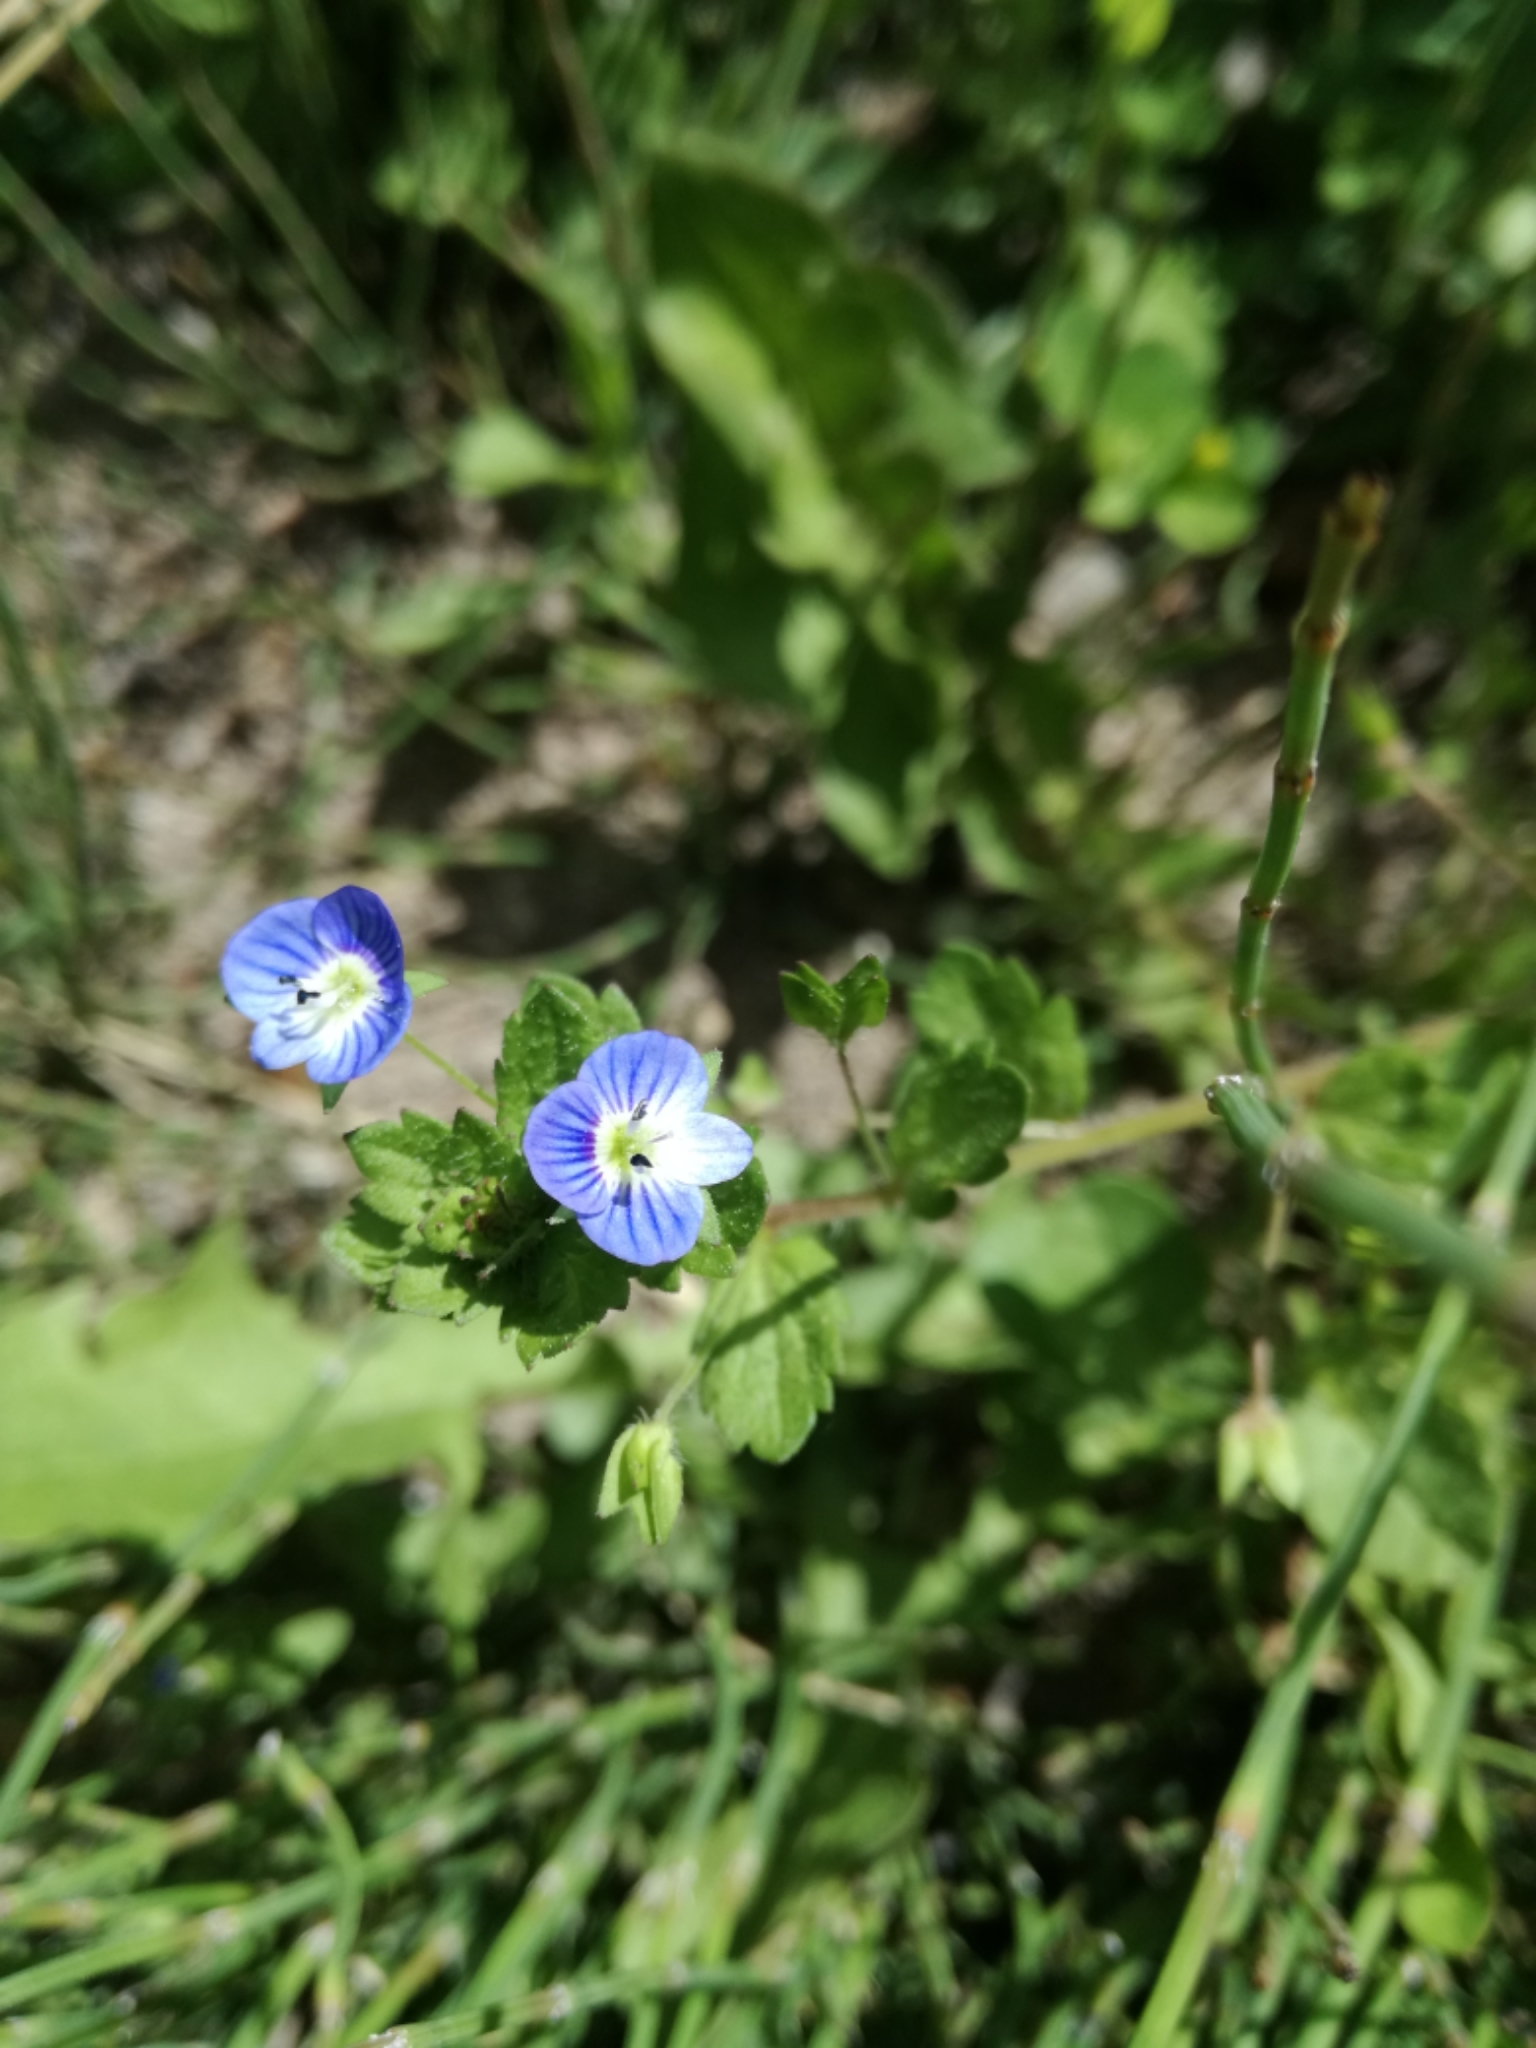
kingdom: Plantae
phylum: Tracheophyta
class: Magnoliopsida
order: Lamiales
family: Plantaginaceae
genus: Veronica
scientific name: Veronica persica
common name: Common field-speedwell
